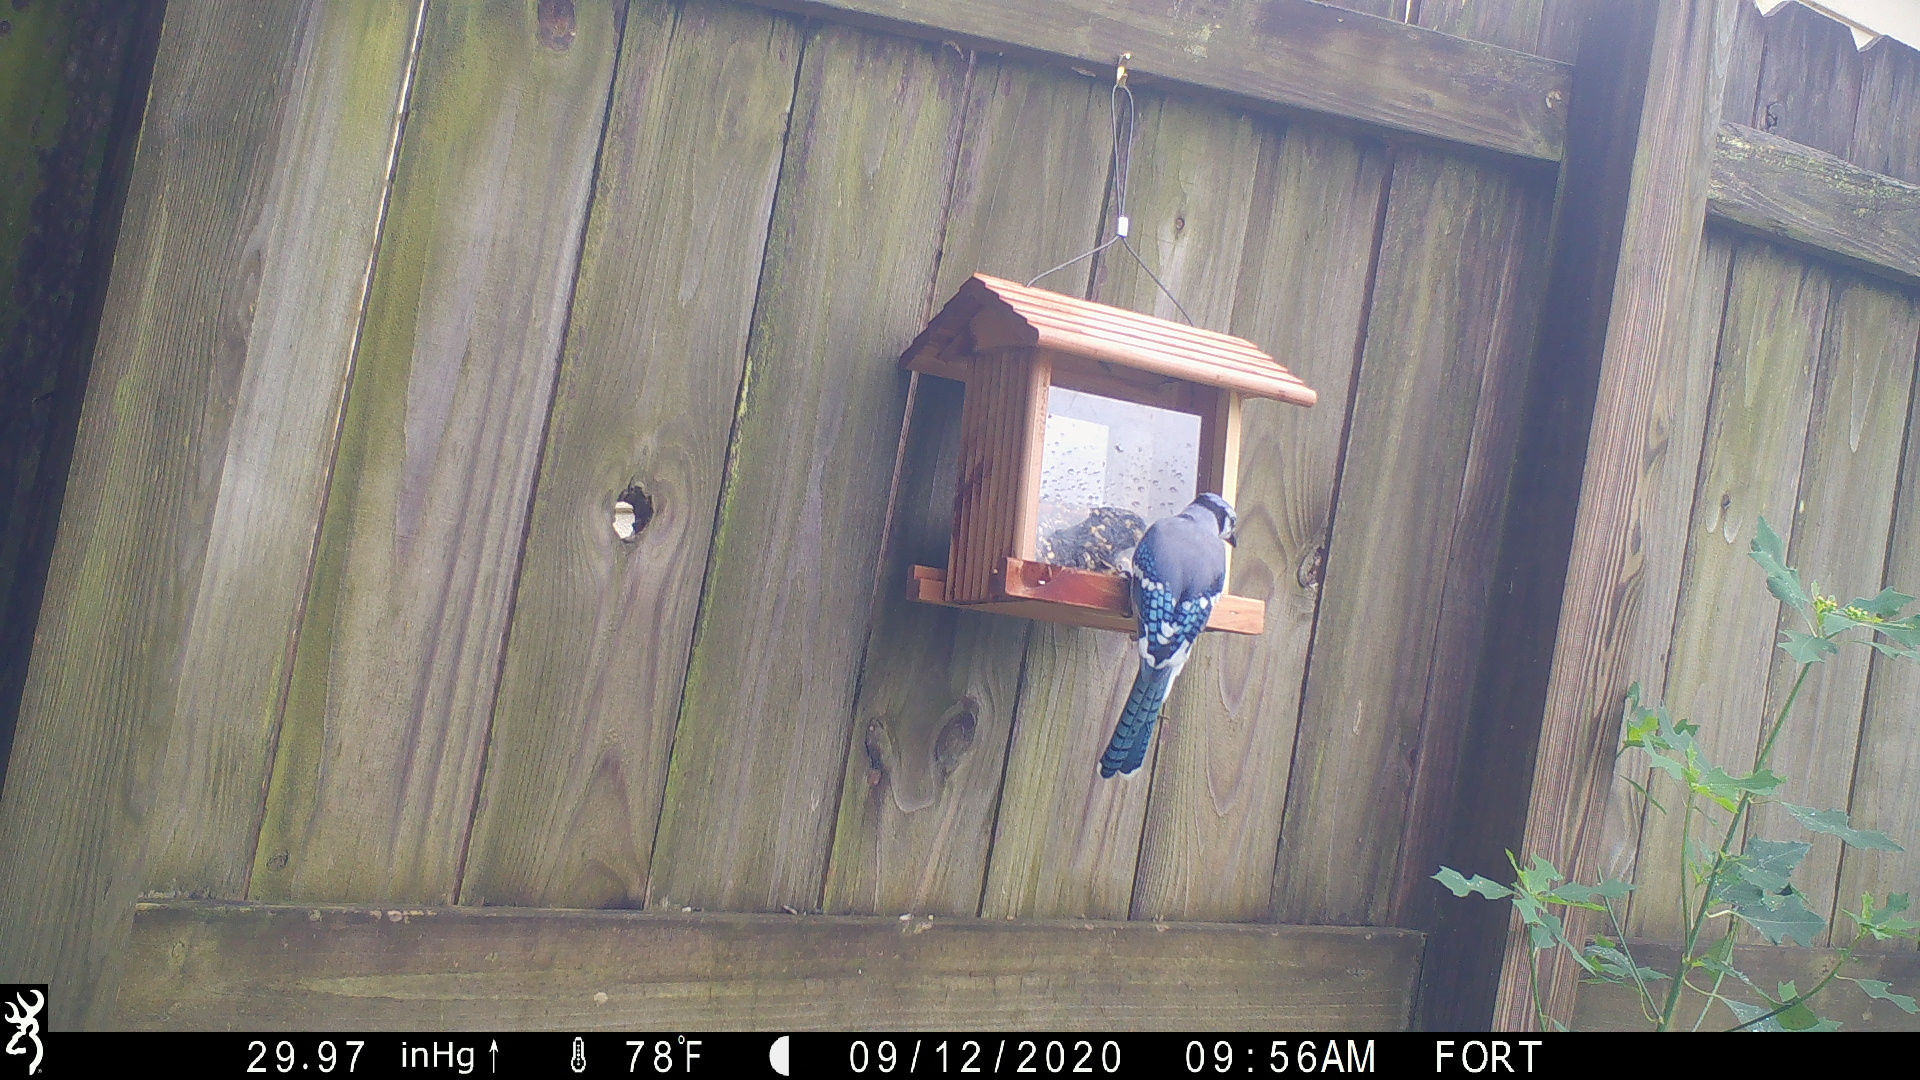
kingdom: Animalia
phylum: Chordata
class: Aves
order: Passeriformes
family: Corvidae
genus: Cyanocitta
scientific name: Cyanocitta cristata
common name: Blue jay
